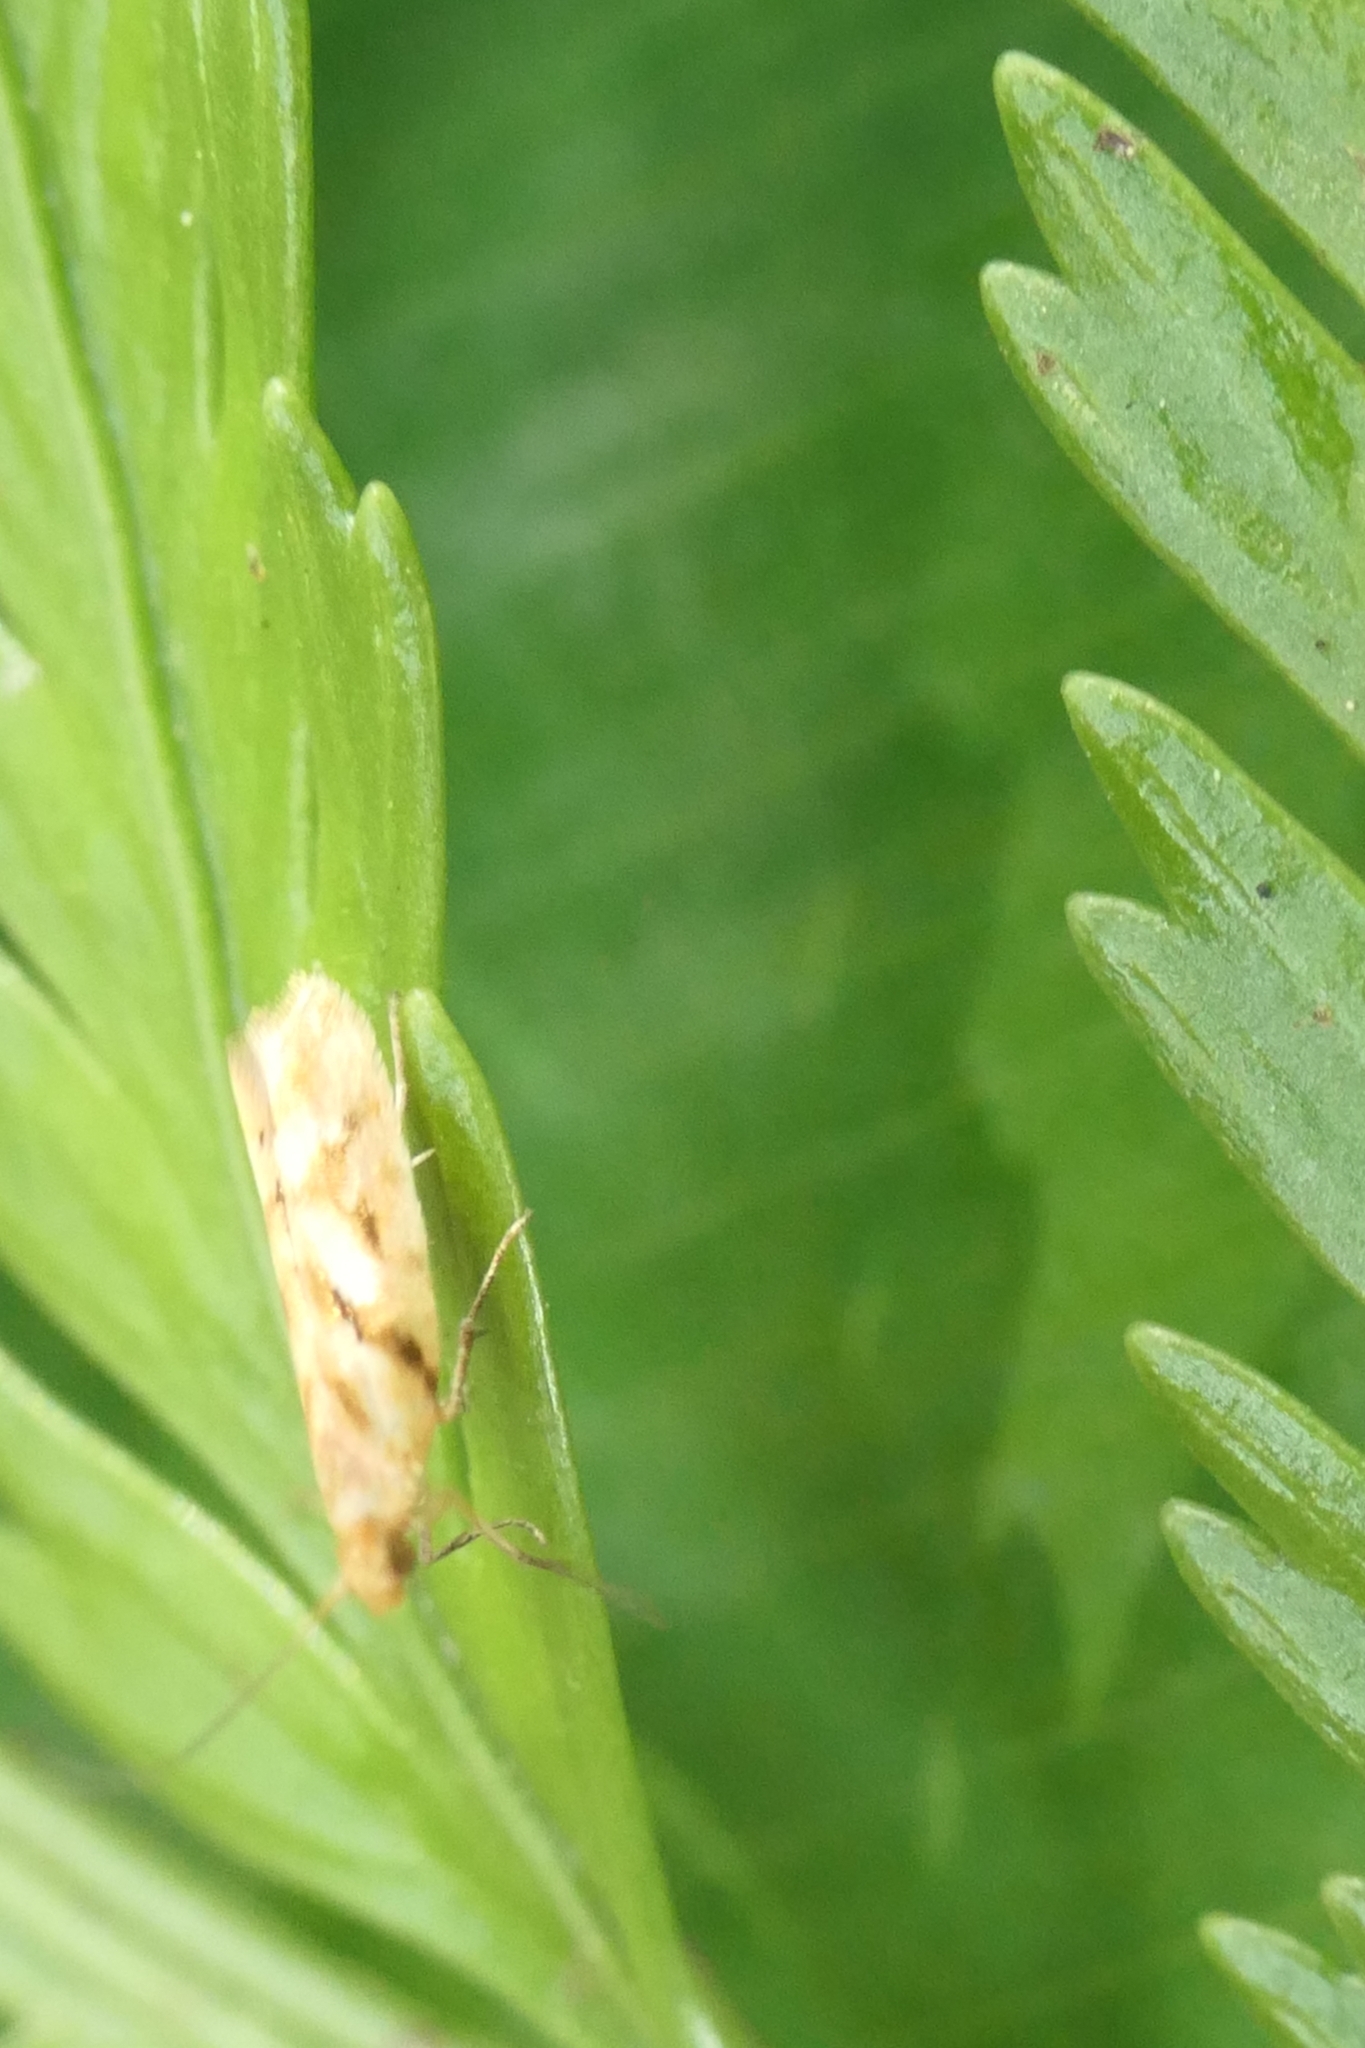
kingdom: Animalia
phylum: Arthropoda
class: Insecta
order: Lepidoptera
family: Glyphipterigidae
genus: Chrysorthenches
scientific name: Chrysorthenches virgata
